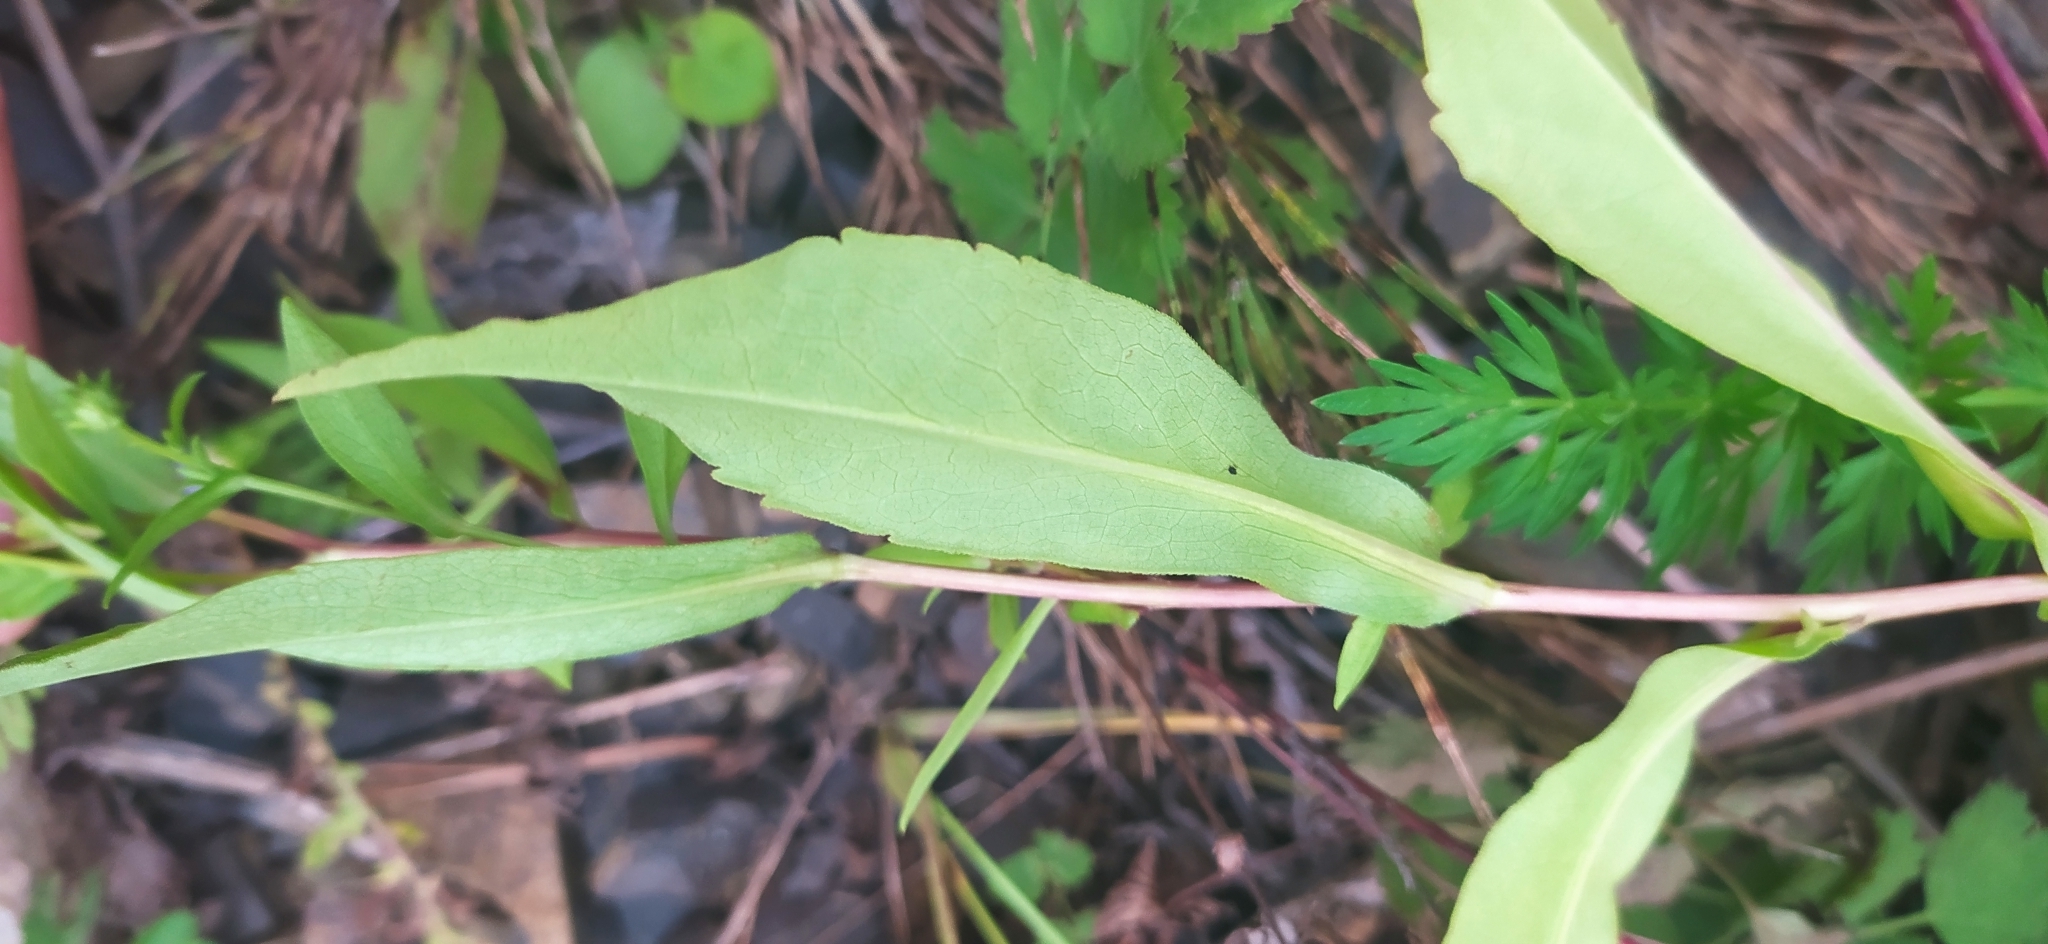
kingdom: Plantae
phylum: Tracheophyta
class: Magnoliopsida
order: Asterales
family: Asteraceae
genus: Symphyotrichum
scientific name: Symphyotrichum novi-belgii
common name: Michaelmas daisy
